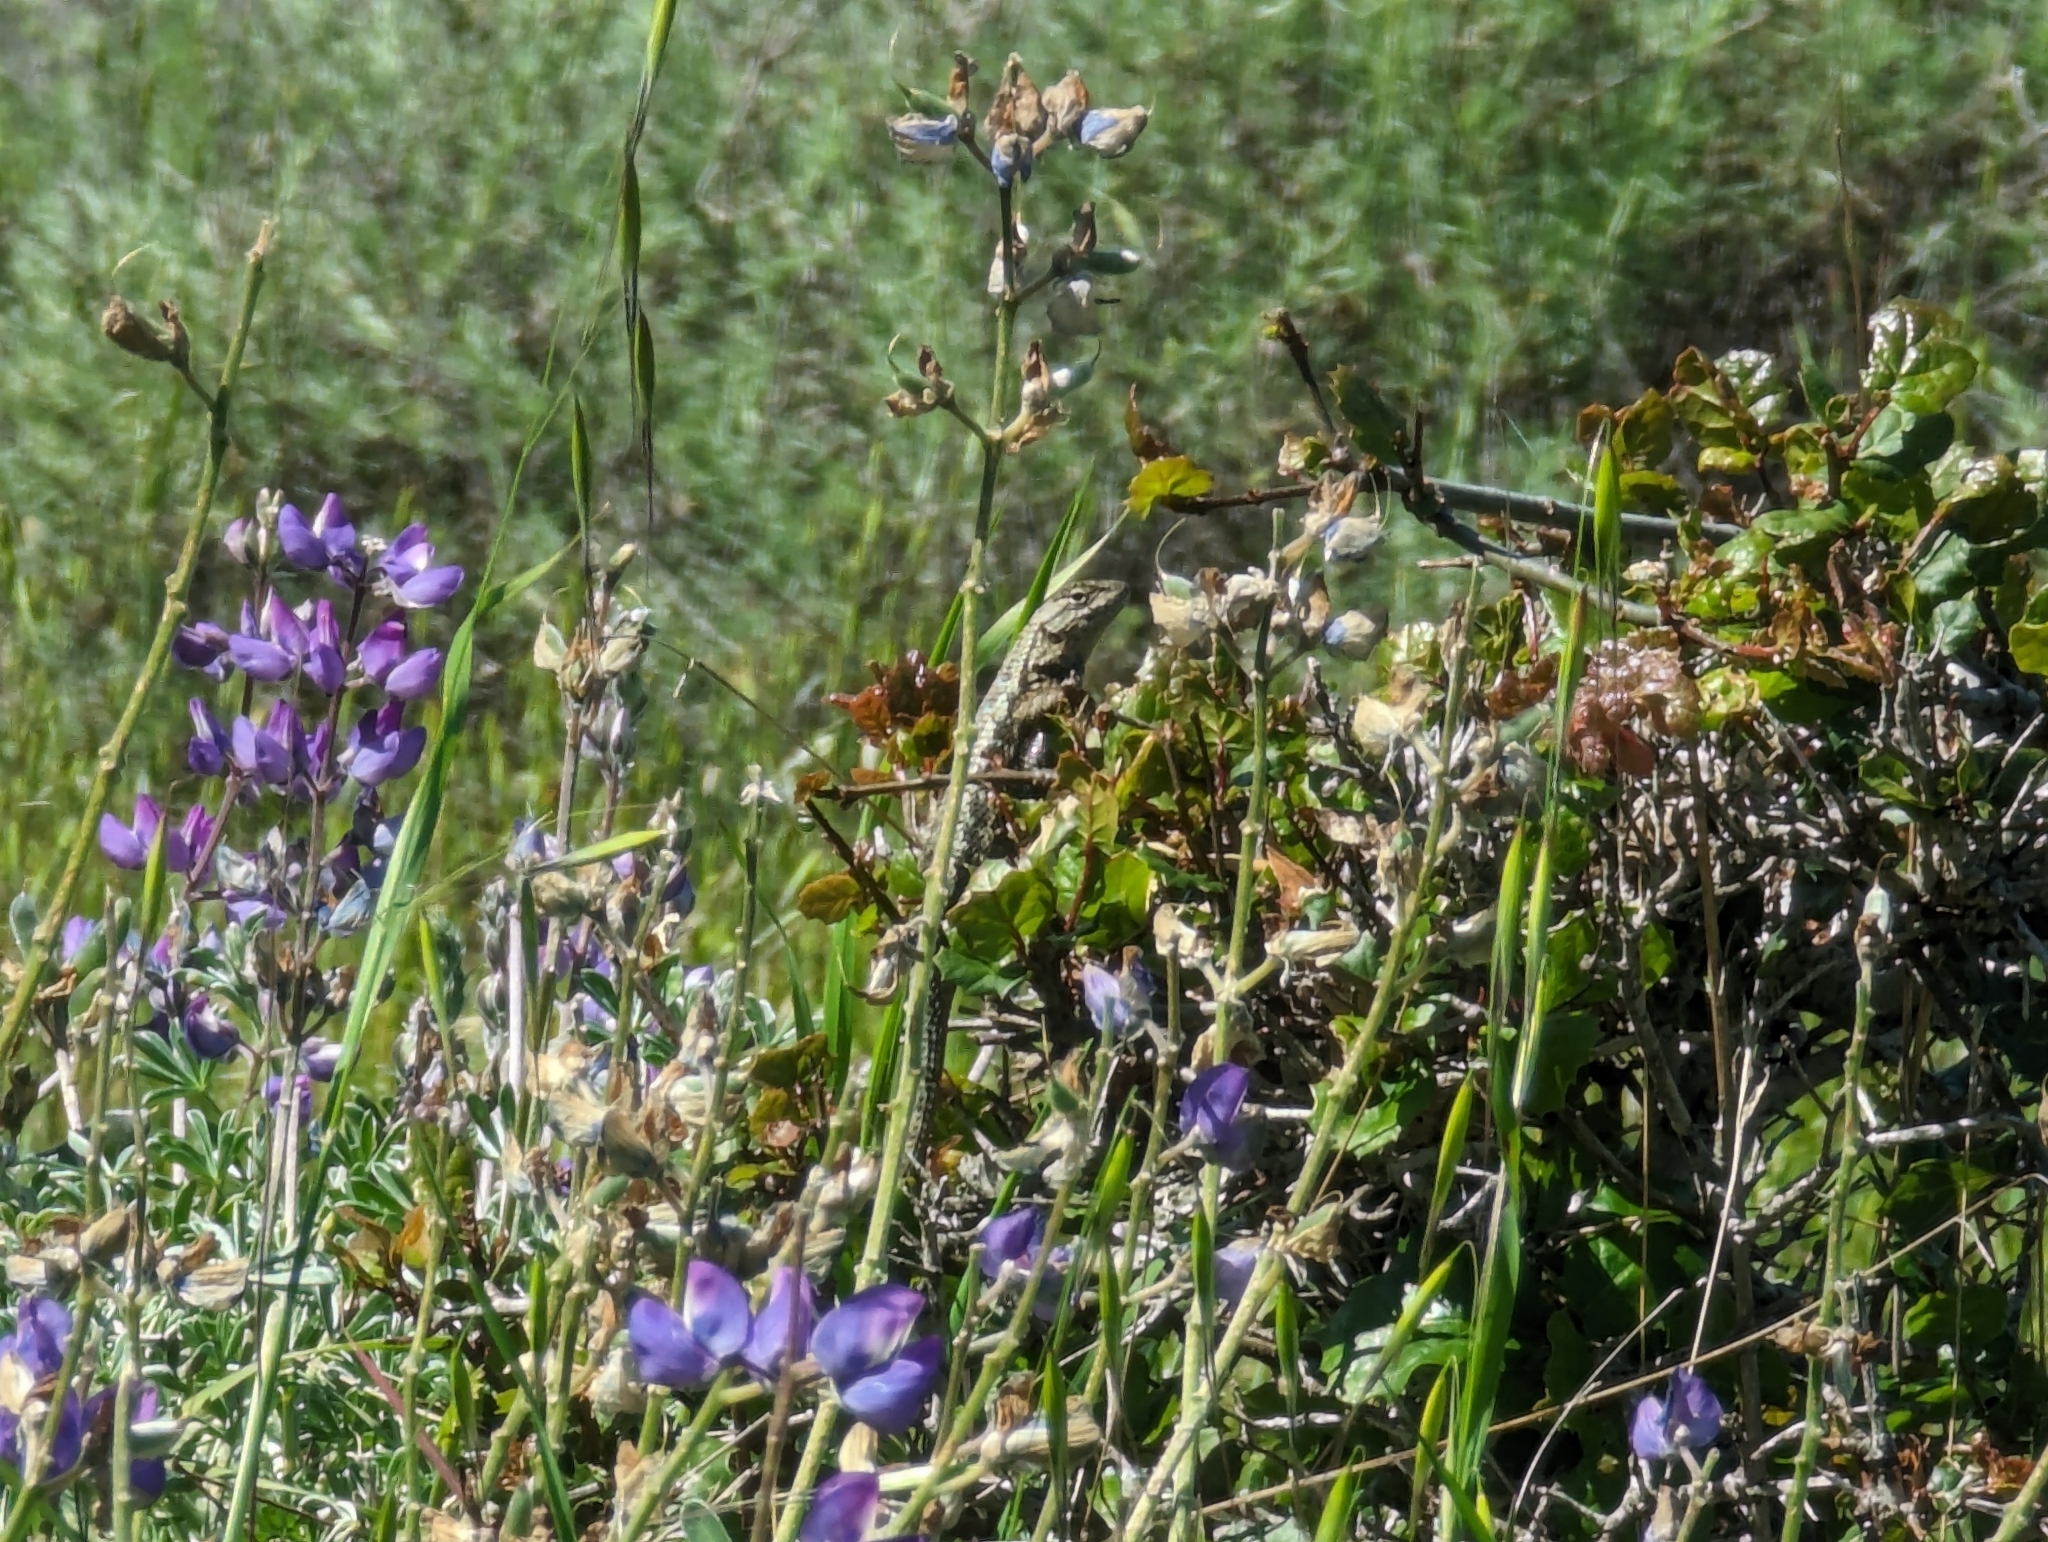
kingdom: Animalia
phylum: Chordata
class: Squamata
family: Phrynosomatidae
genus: Sceloporus
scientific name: Sceloporus occidentalis
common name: Western fence lizard
